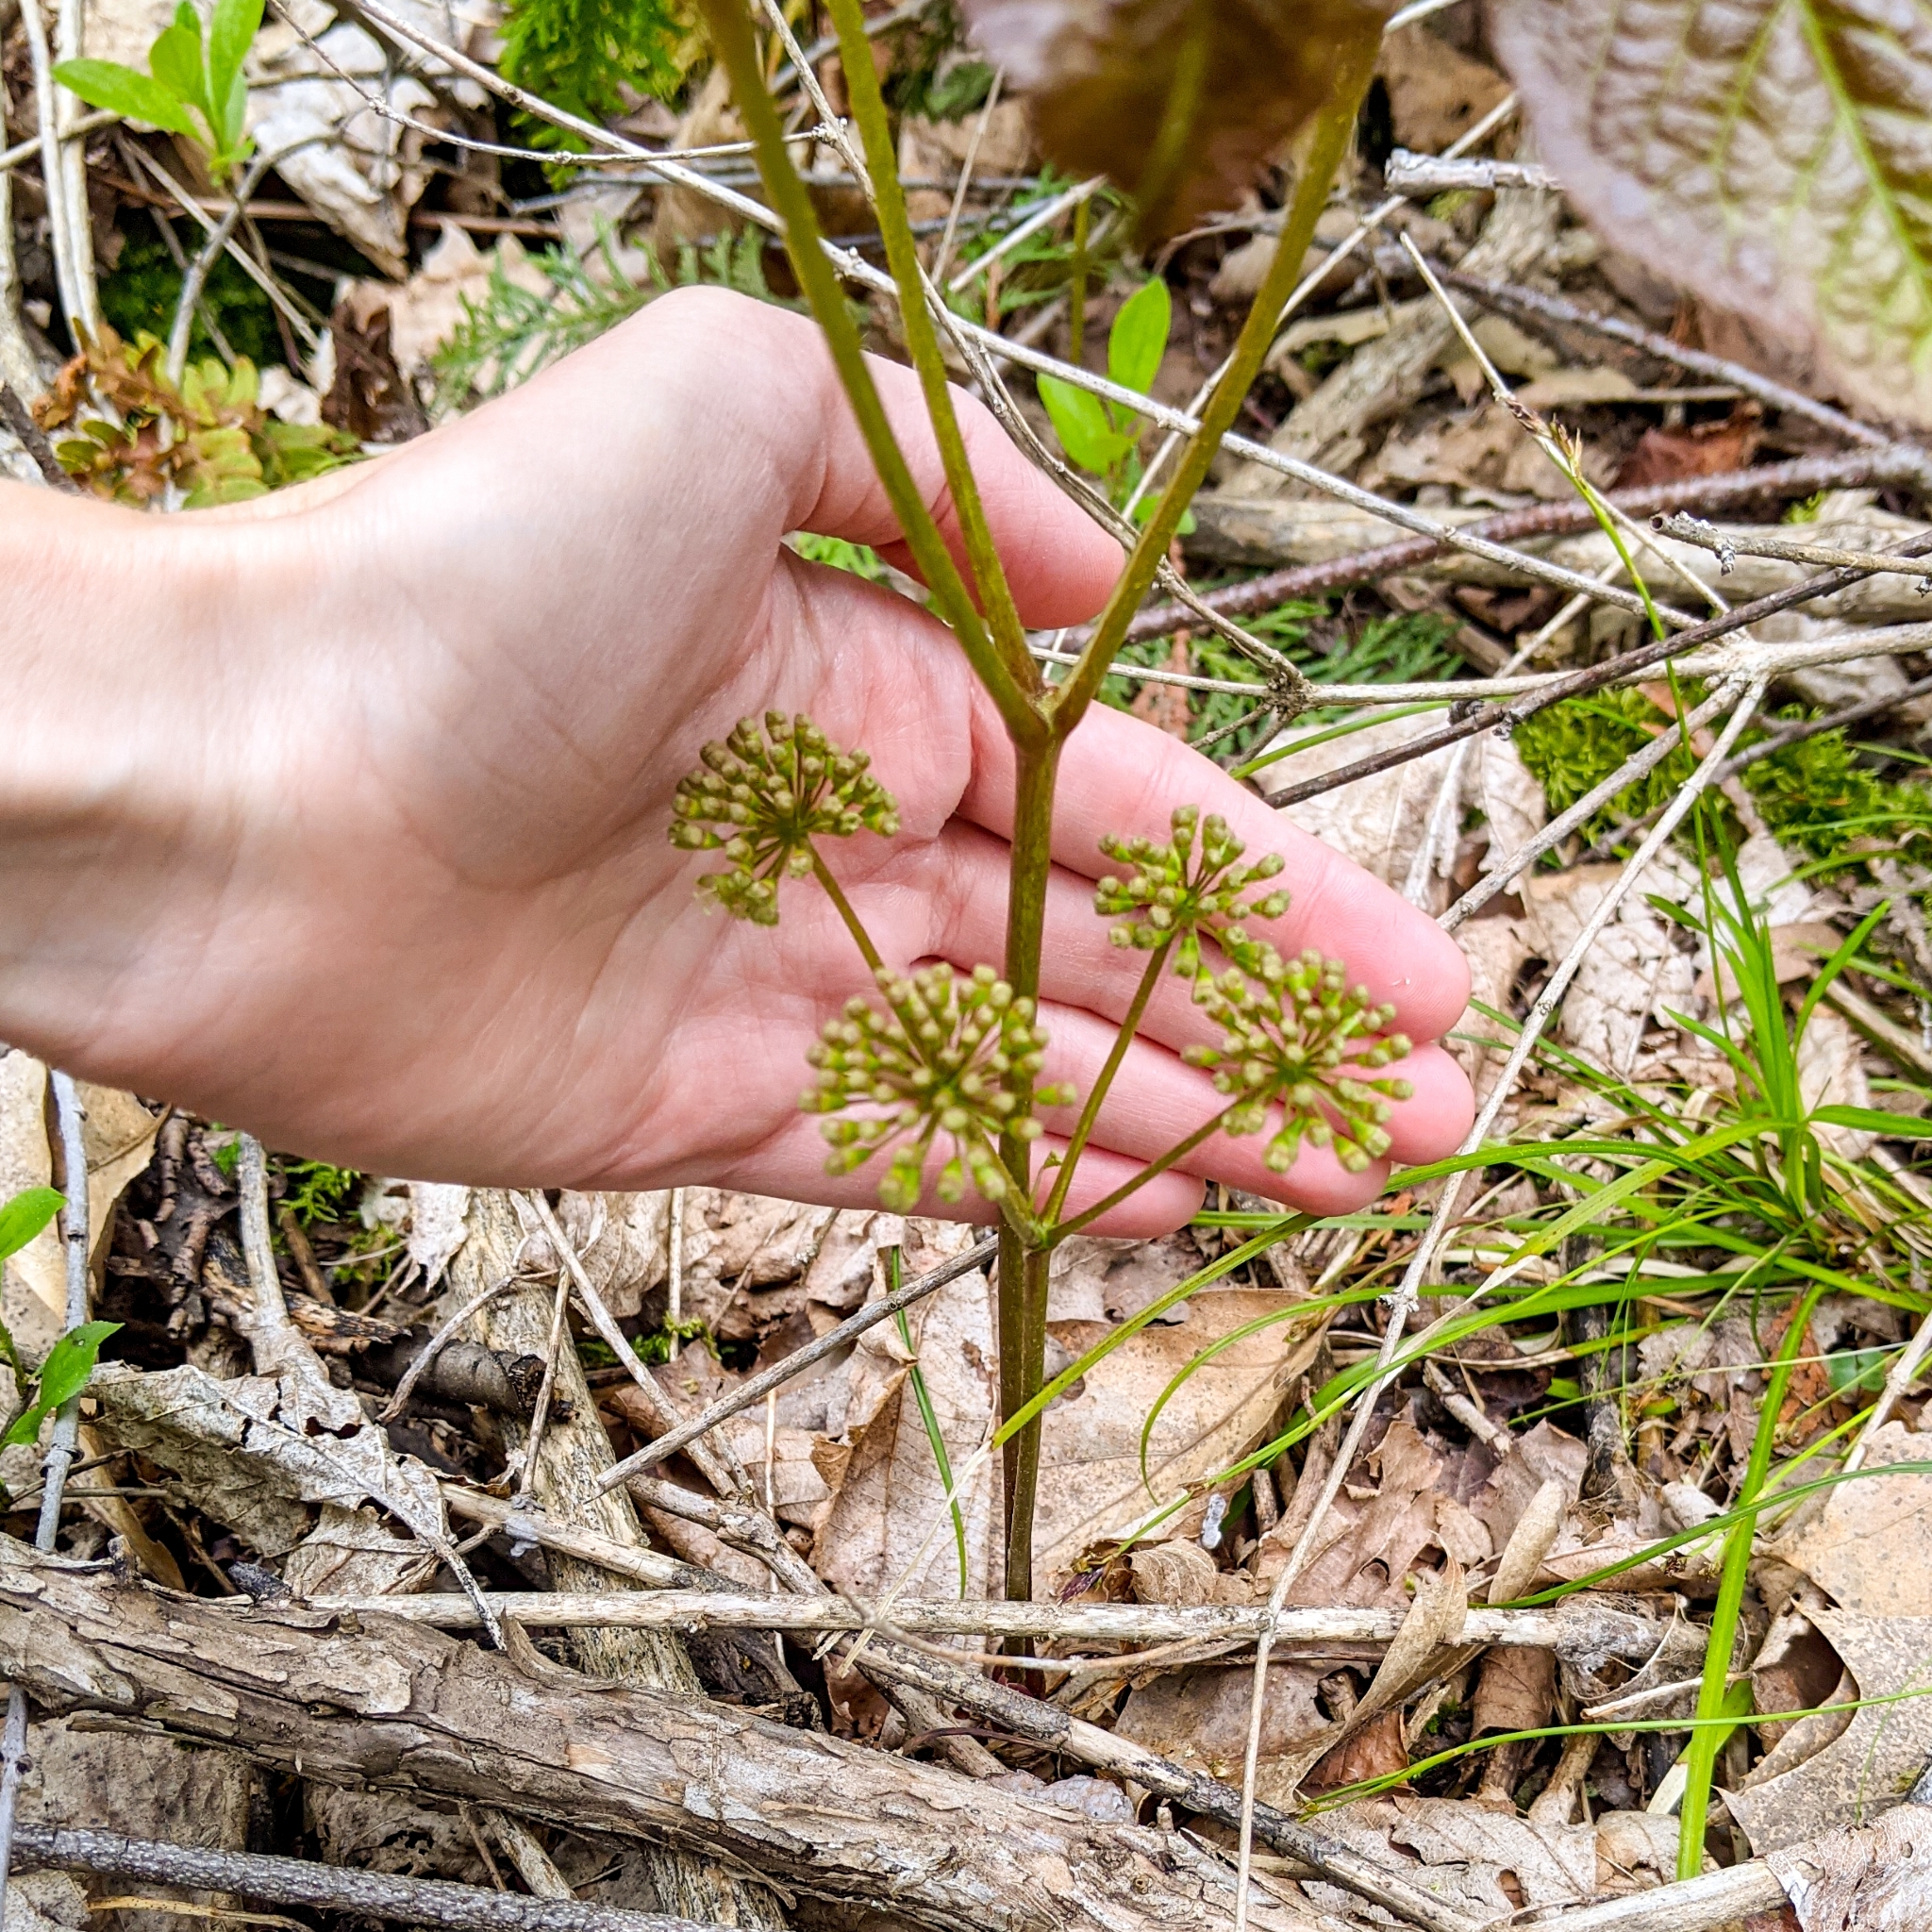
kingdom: Plantae
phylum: Tracheophyta
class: Magnoliopsida
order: Apiales
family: Araliaceae
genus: Aralia
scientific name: Aralia nudicaulis
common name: Wild sarsaparilla
